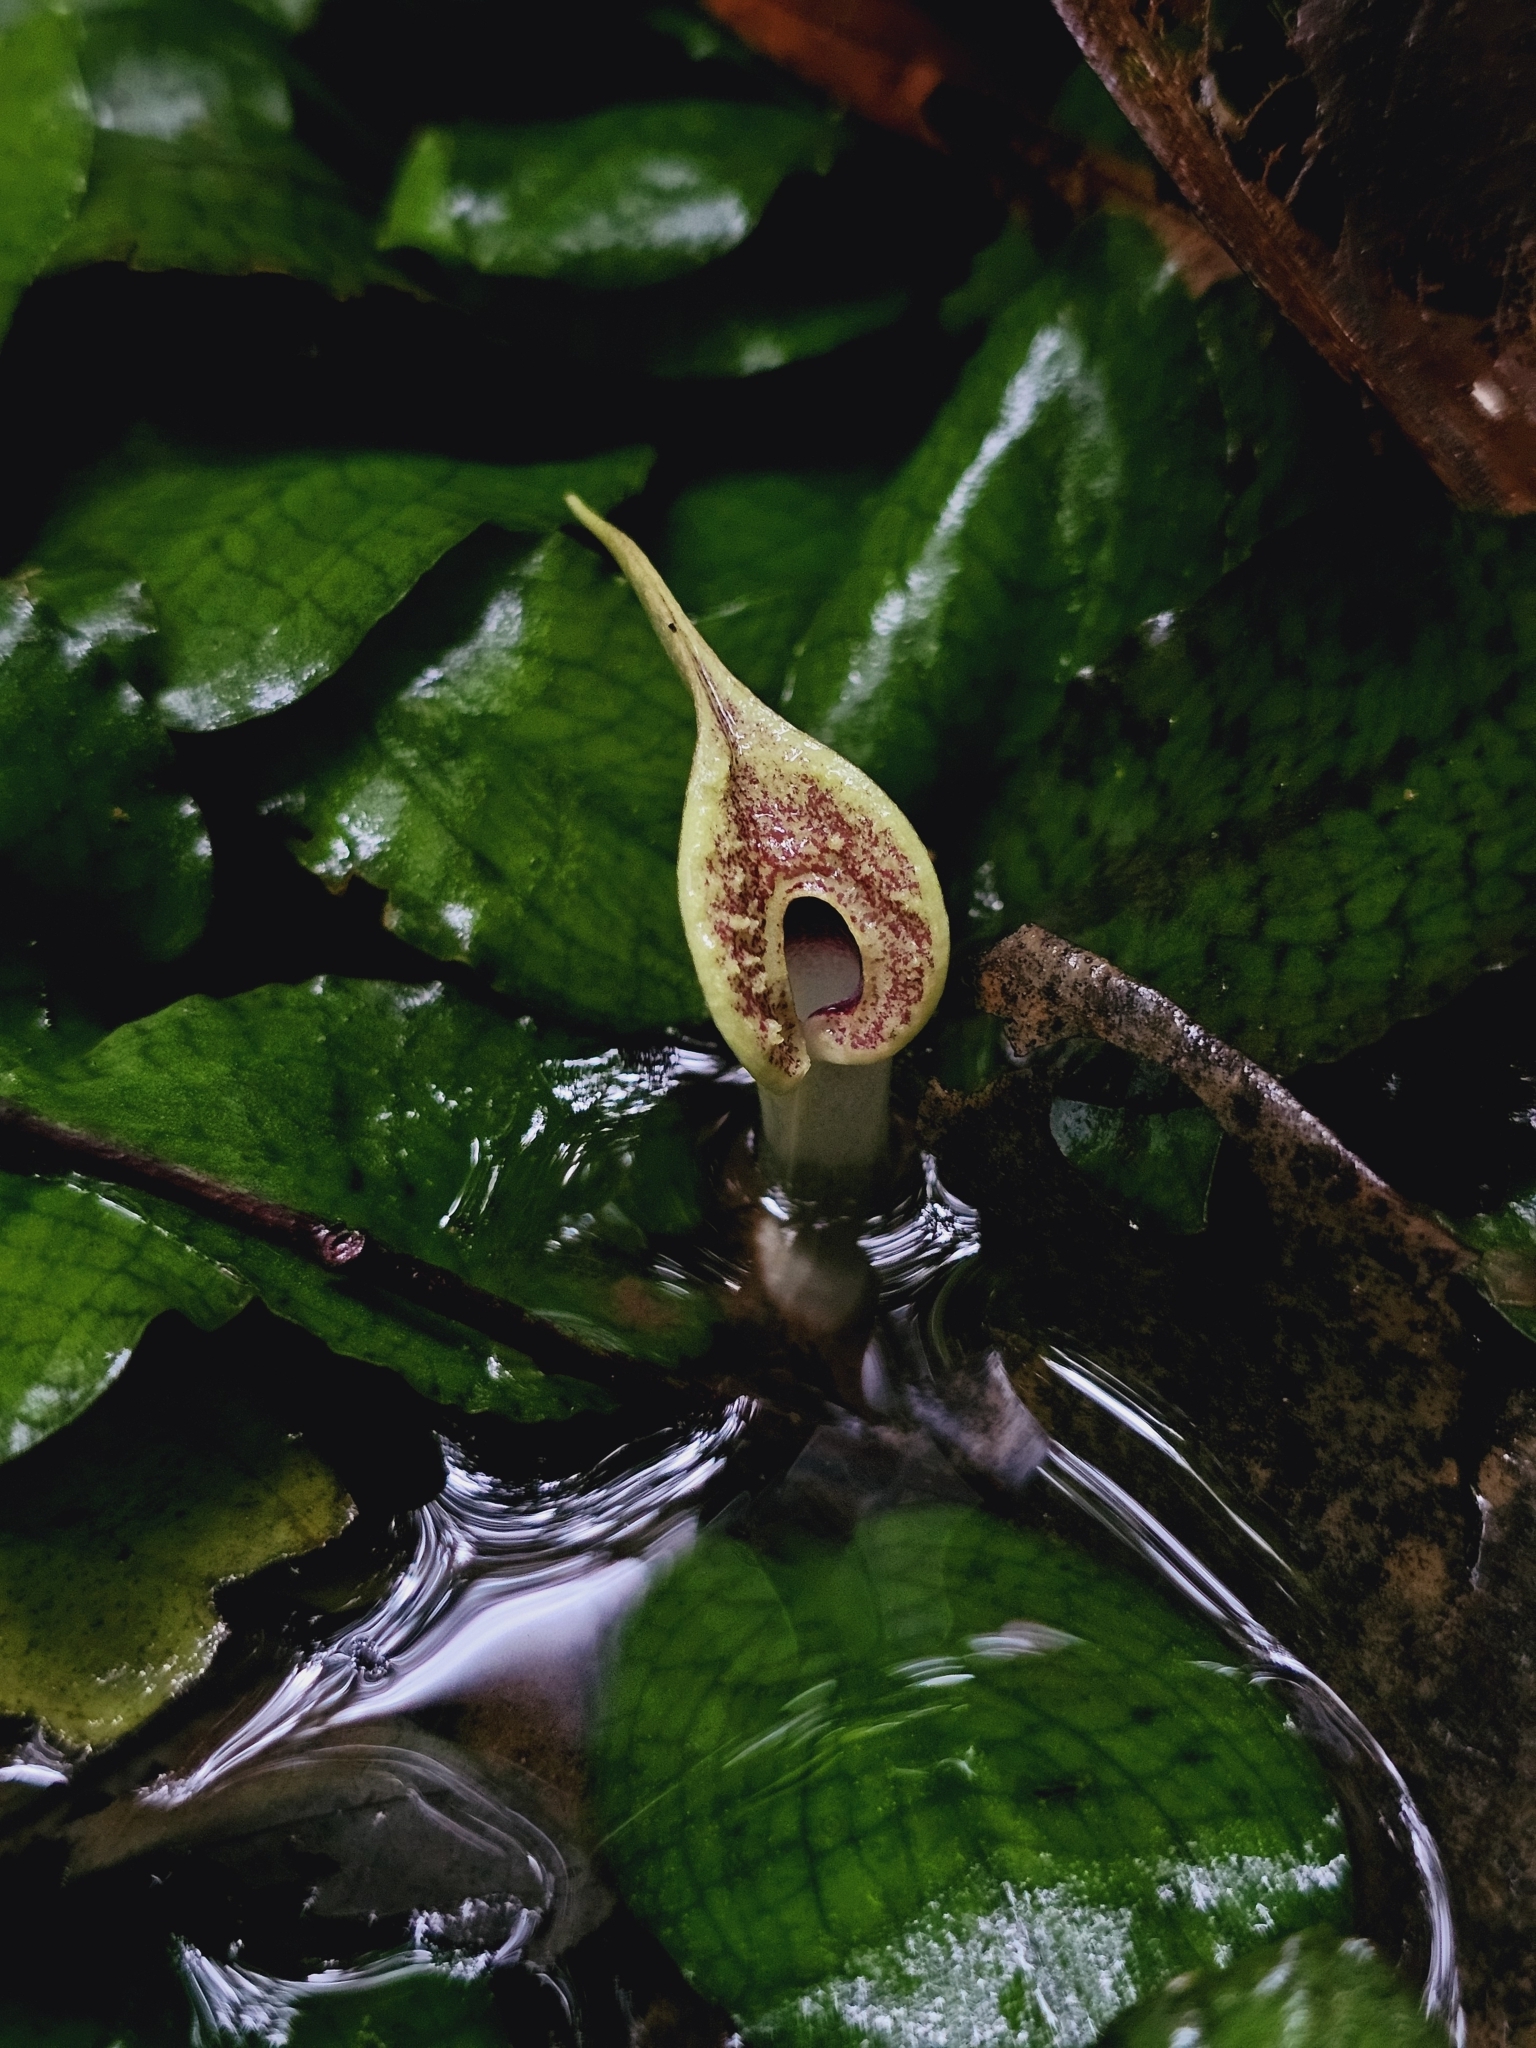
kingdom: Plantae
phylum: Tracheophyta
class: Liliopsida
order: Alismatales
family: Araceae
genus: Cryptocoryne
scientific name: Cryptocoryne timahensis
